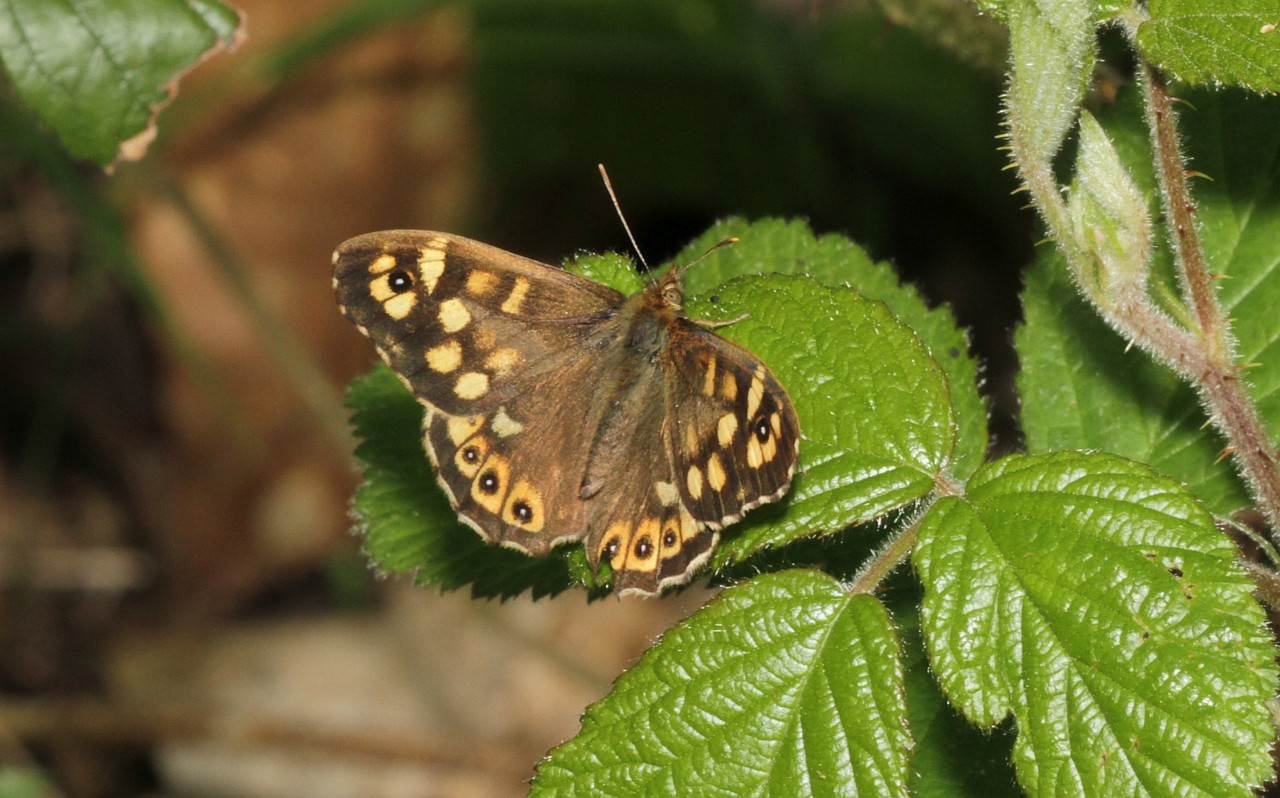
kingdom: Animalia
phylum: Arthropoda
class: Insecta
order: Lepidoptera
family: Nymphalidae
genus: Pararge
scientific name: Pararge aegeria
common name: Speckled wood
